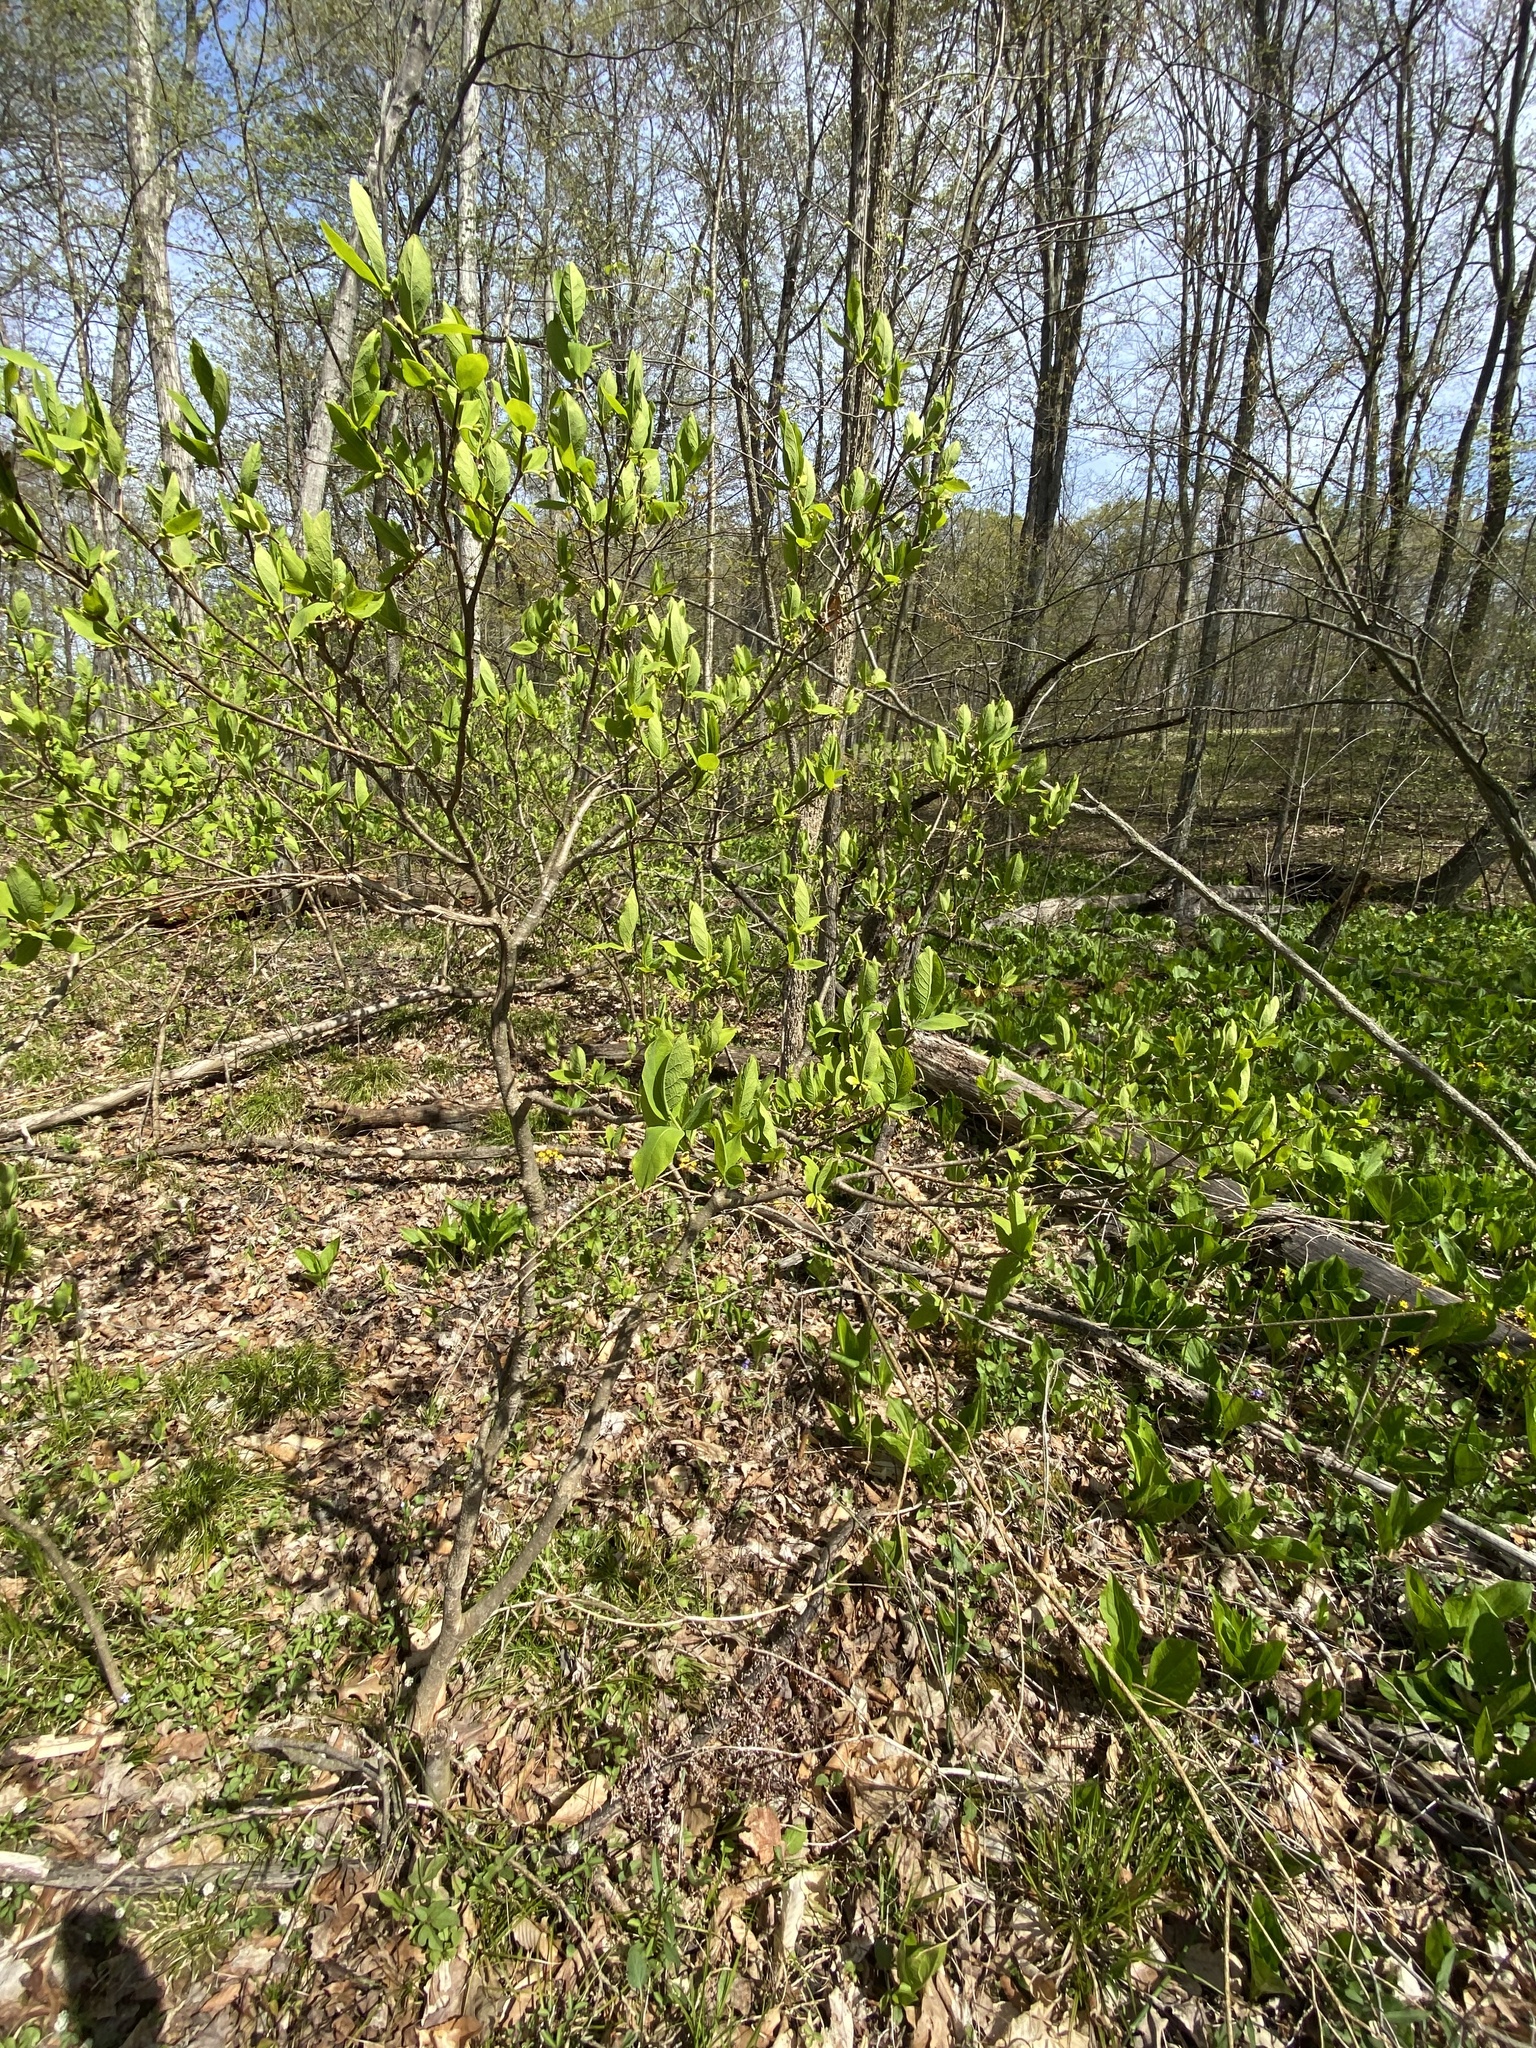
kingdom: Plantae
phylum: Tracheophyta
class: Magnoliopsida
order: Malvales
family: Thymelaeaceae
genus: Dirca
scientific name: Dirca palustris
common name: Leatherwood
